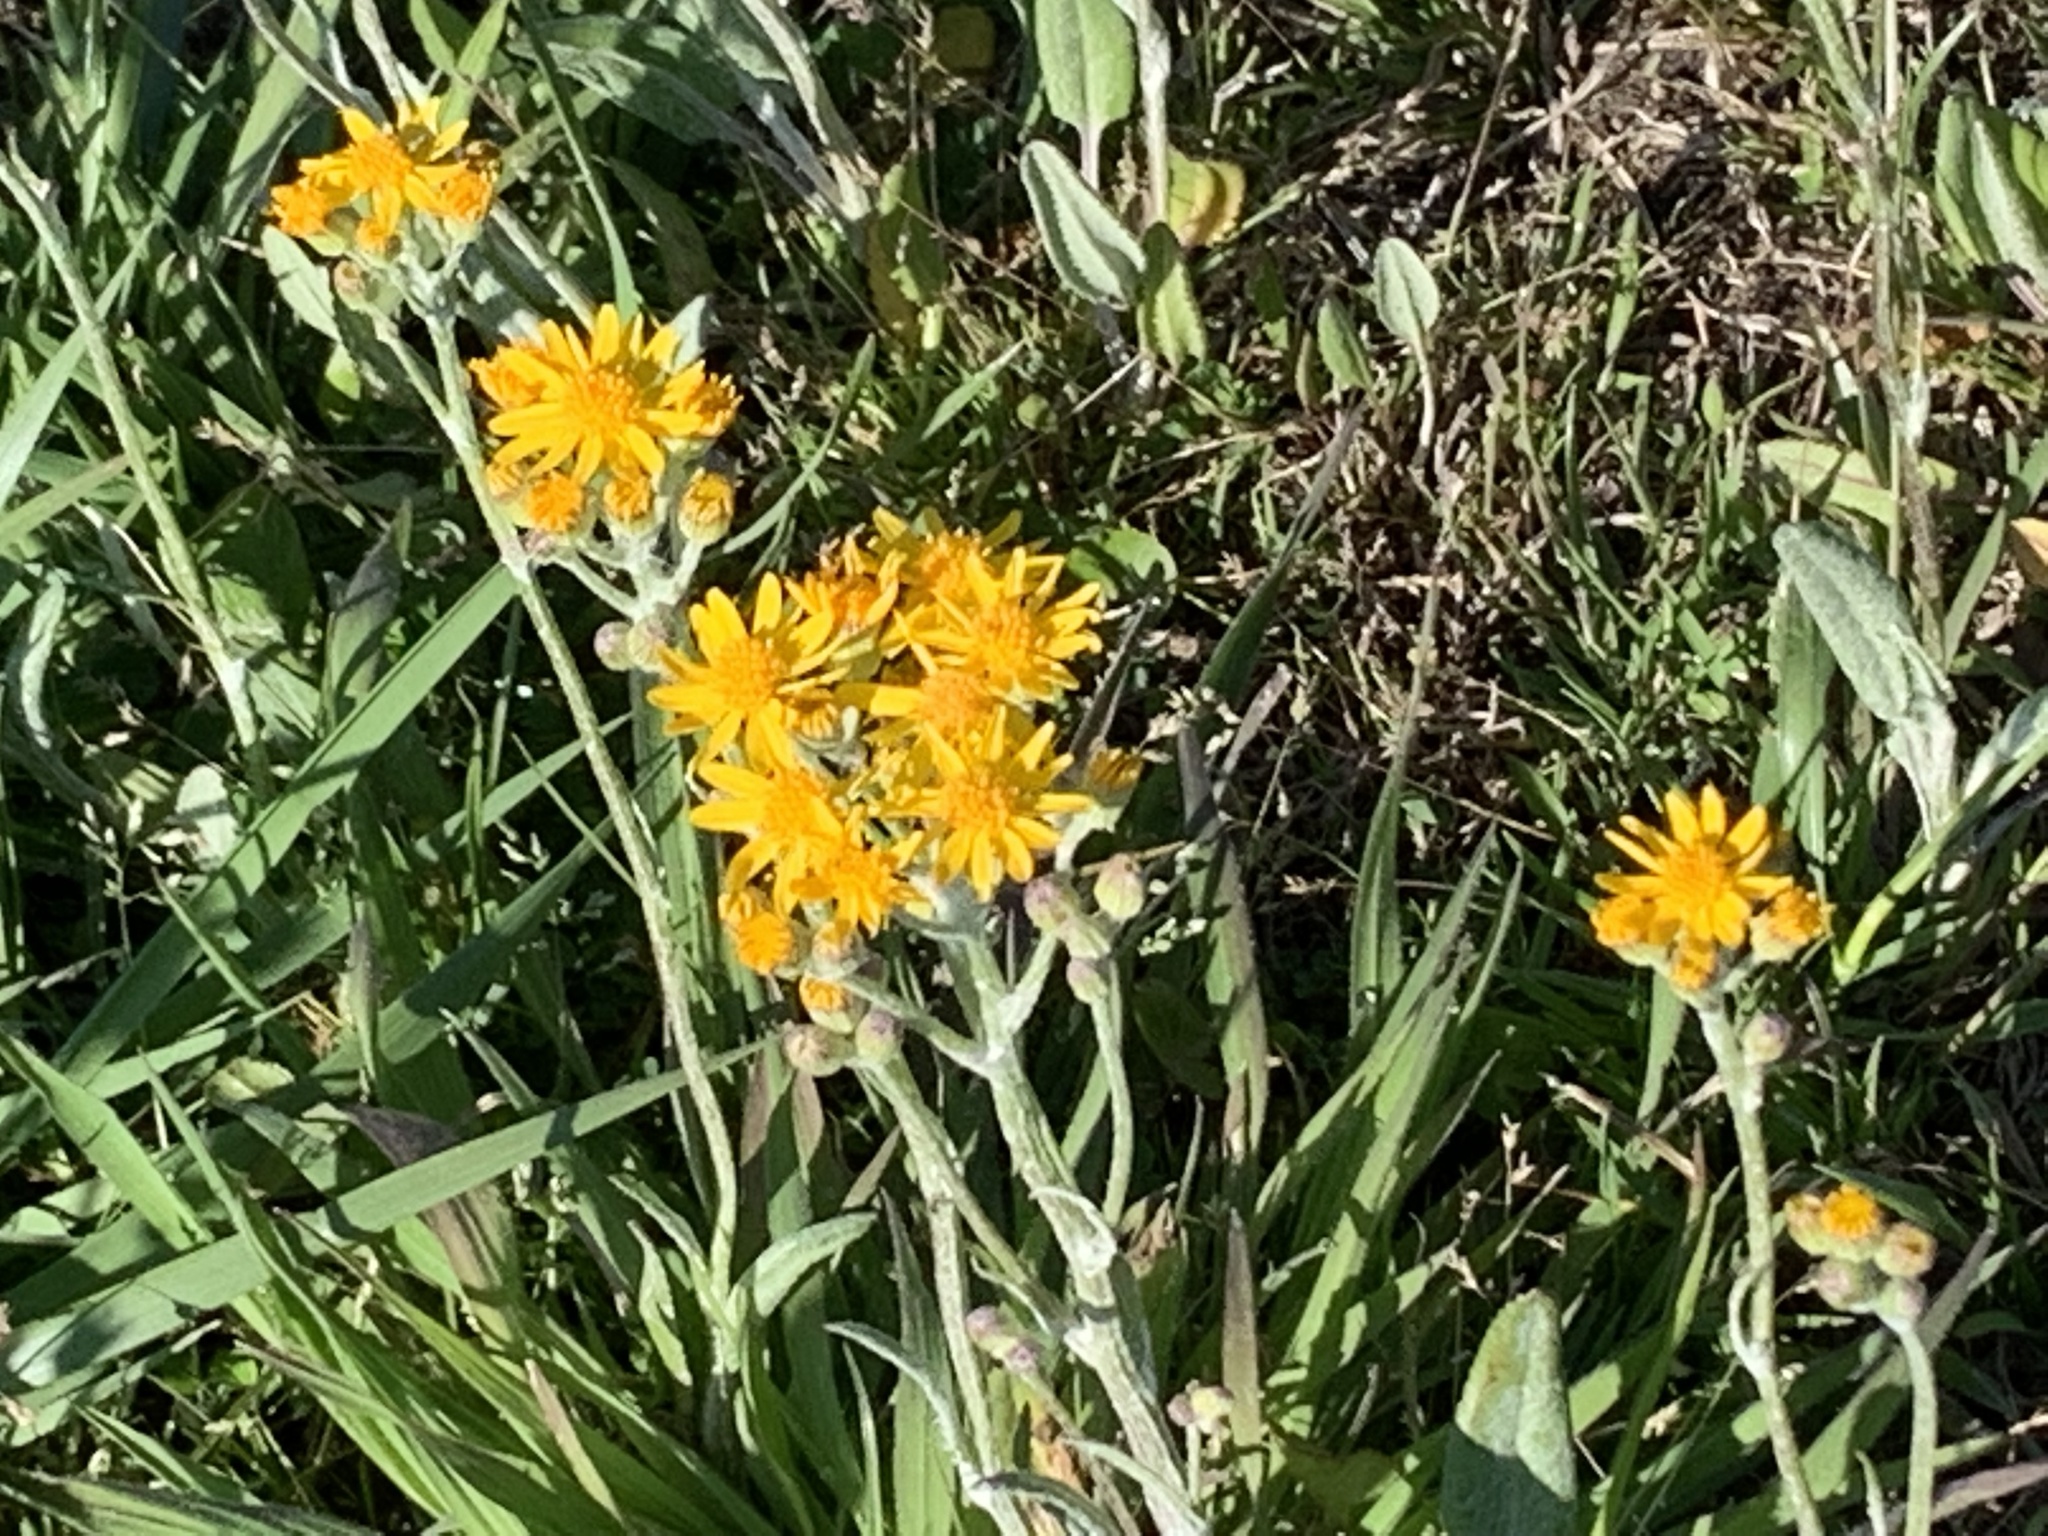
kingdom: Plantae
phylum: Tracheophyta
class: Magnoliopsida
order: Asterales
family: Asteraceae
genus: Packera
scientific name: Packera dubia
